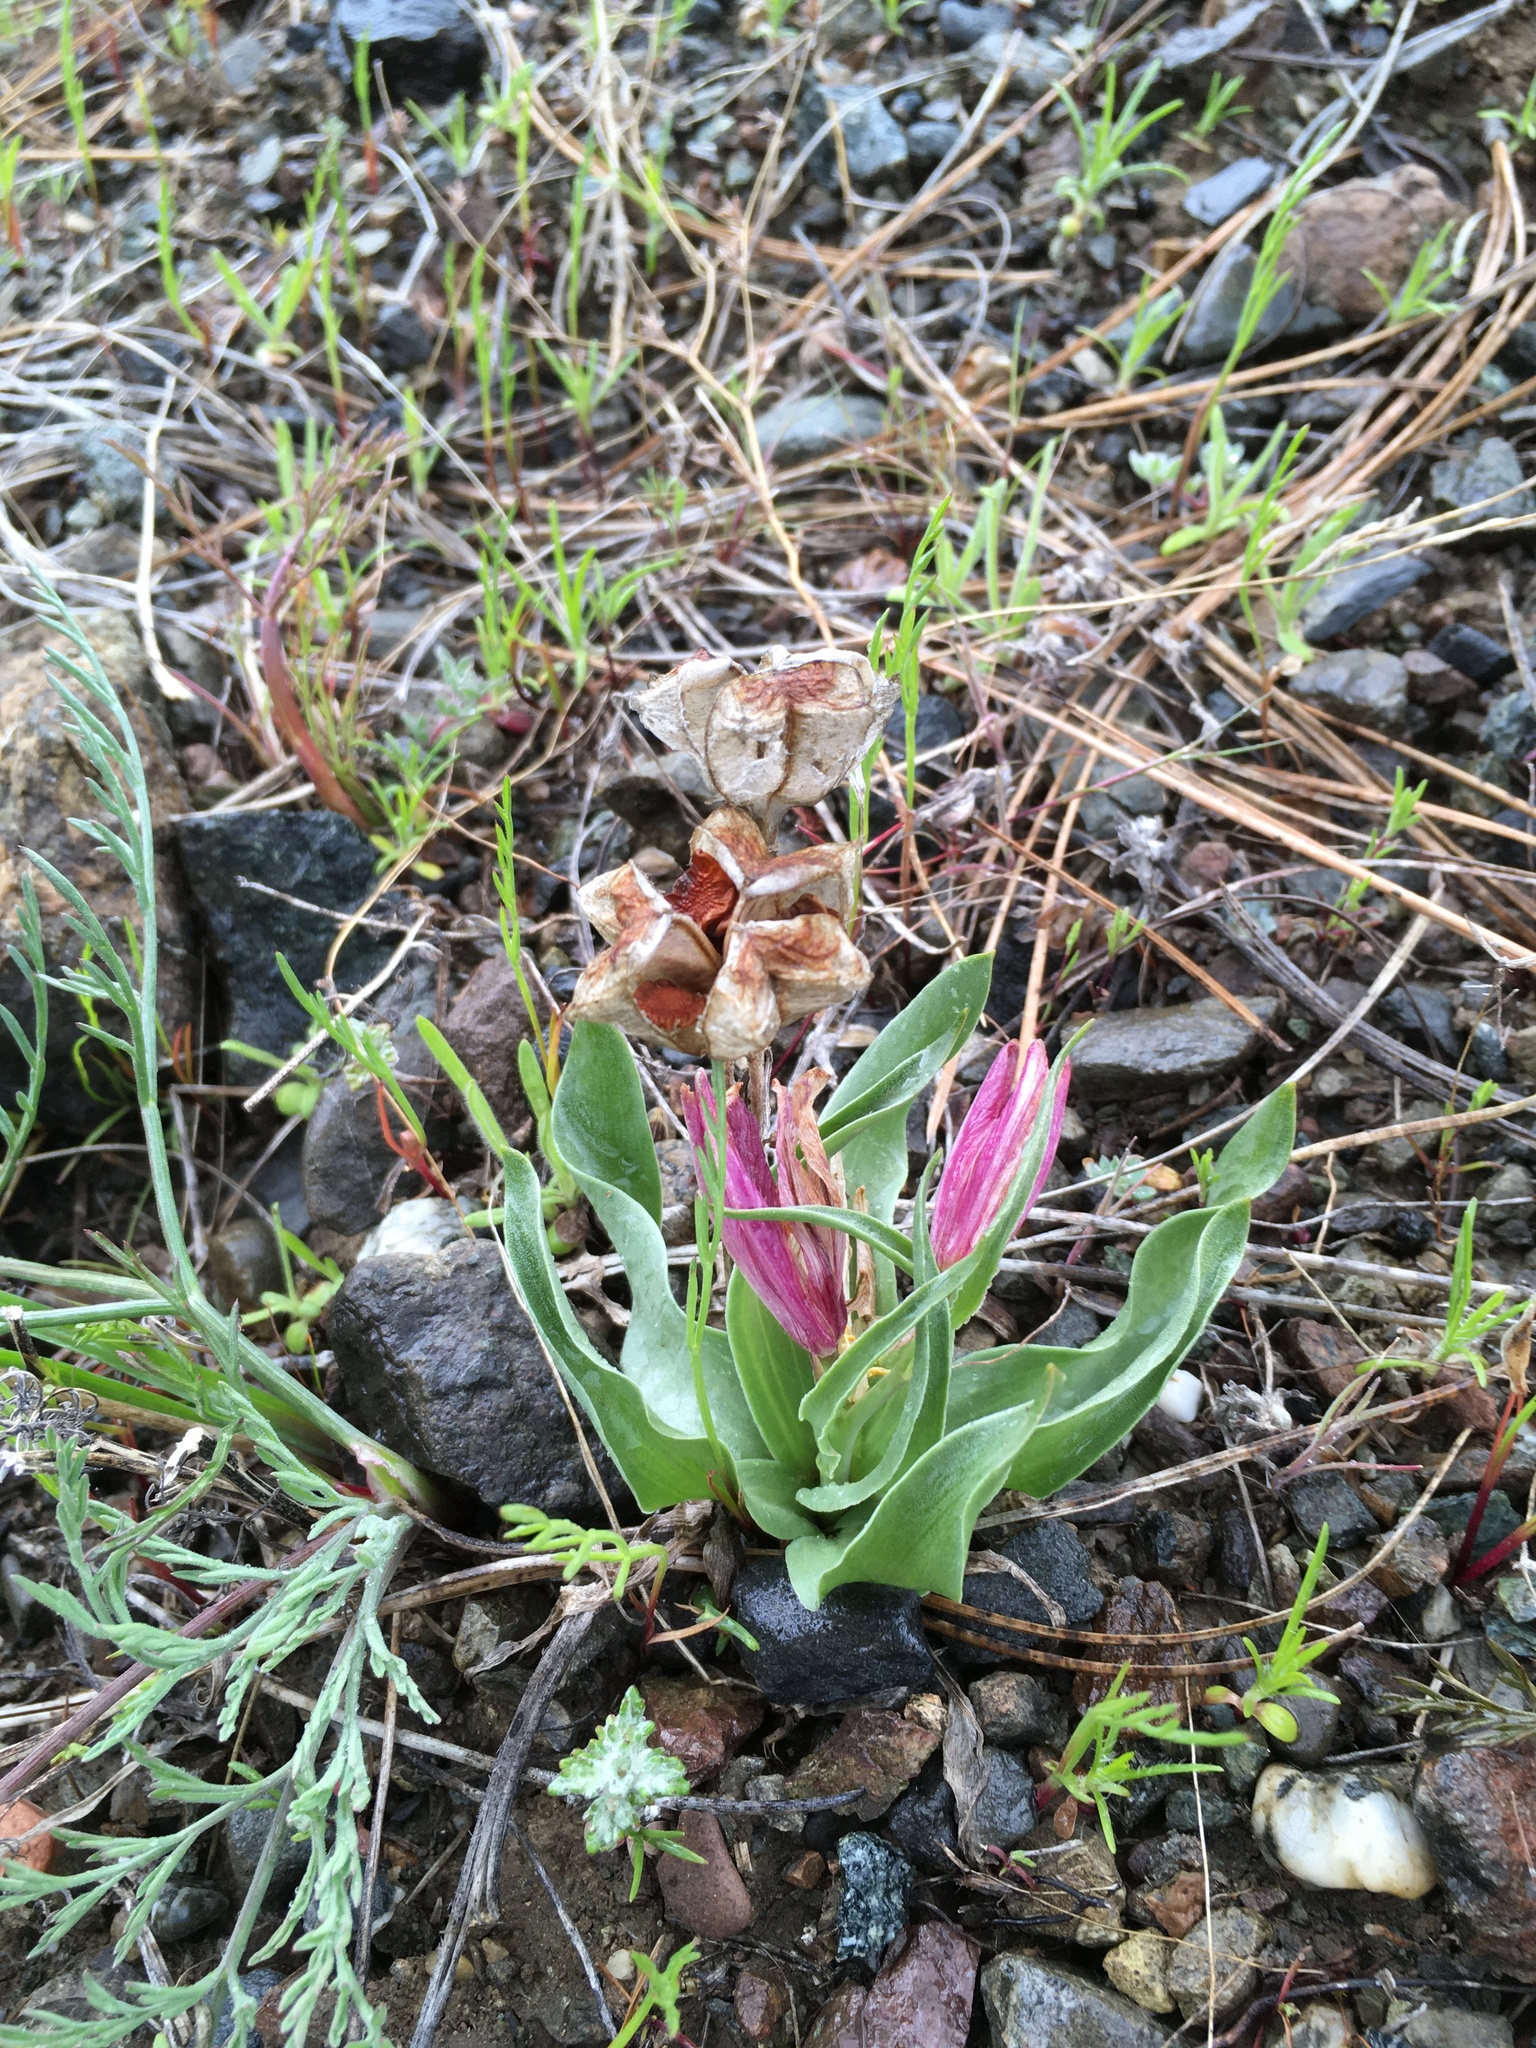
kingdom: Plantae
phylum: Tracheophyta
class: Liliopsida
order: Liliales
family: Liliaceae
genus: Fritillaria
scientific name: Fritillaria pluriflora
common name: Adobe-lily
